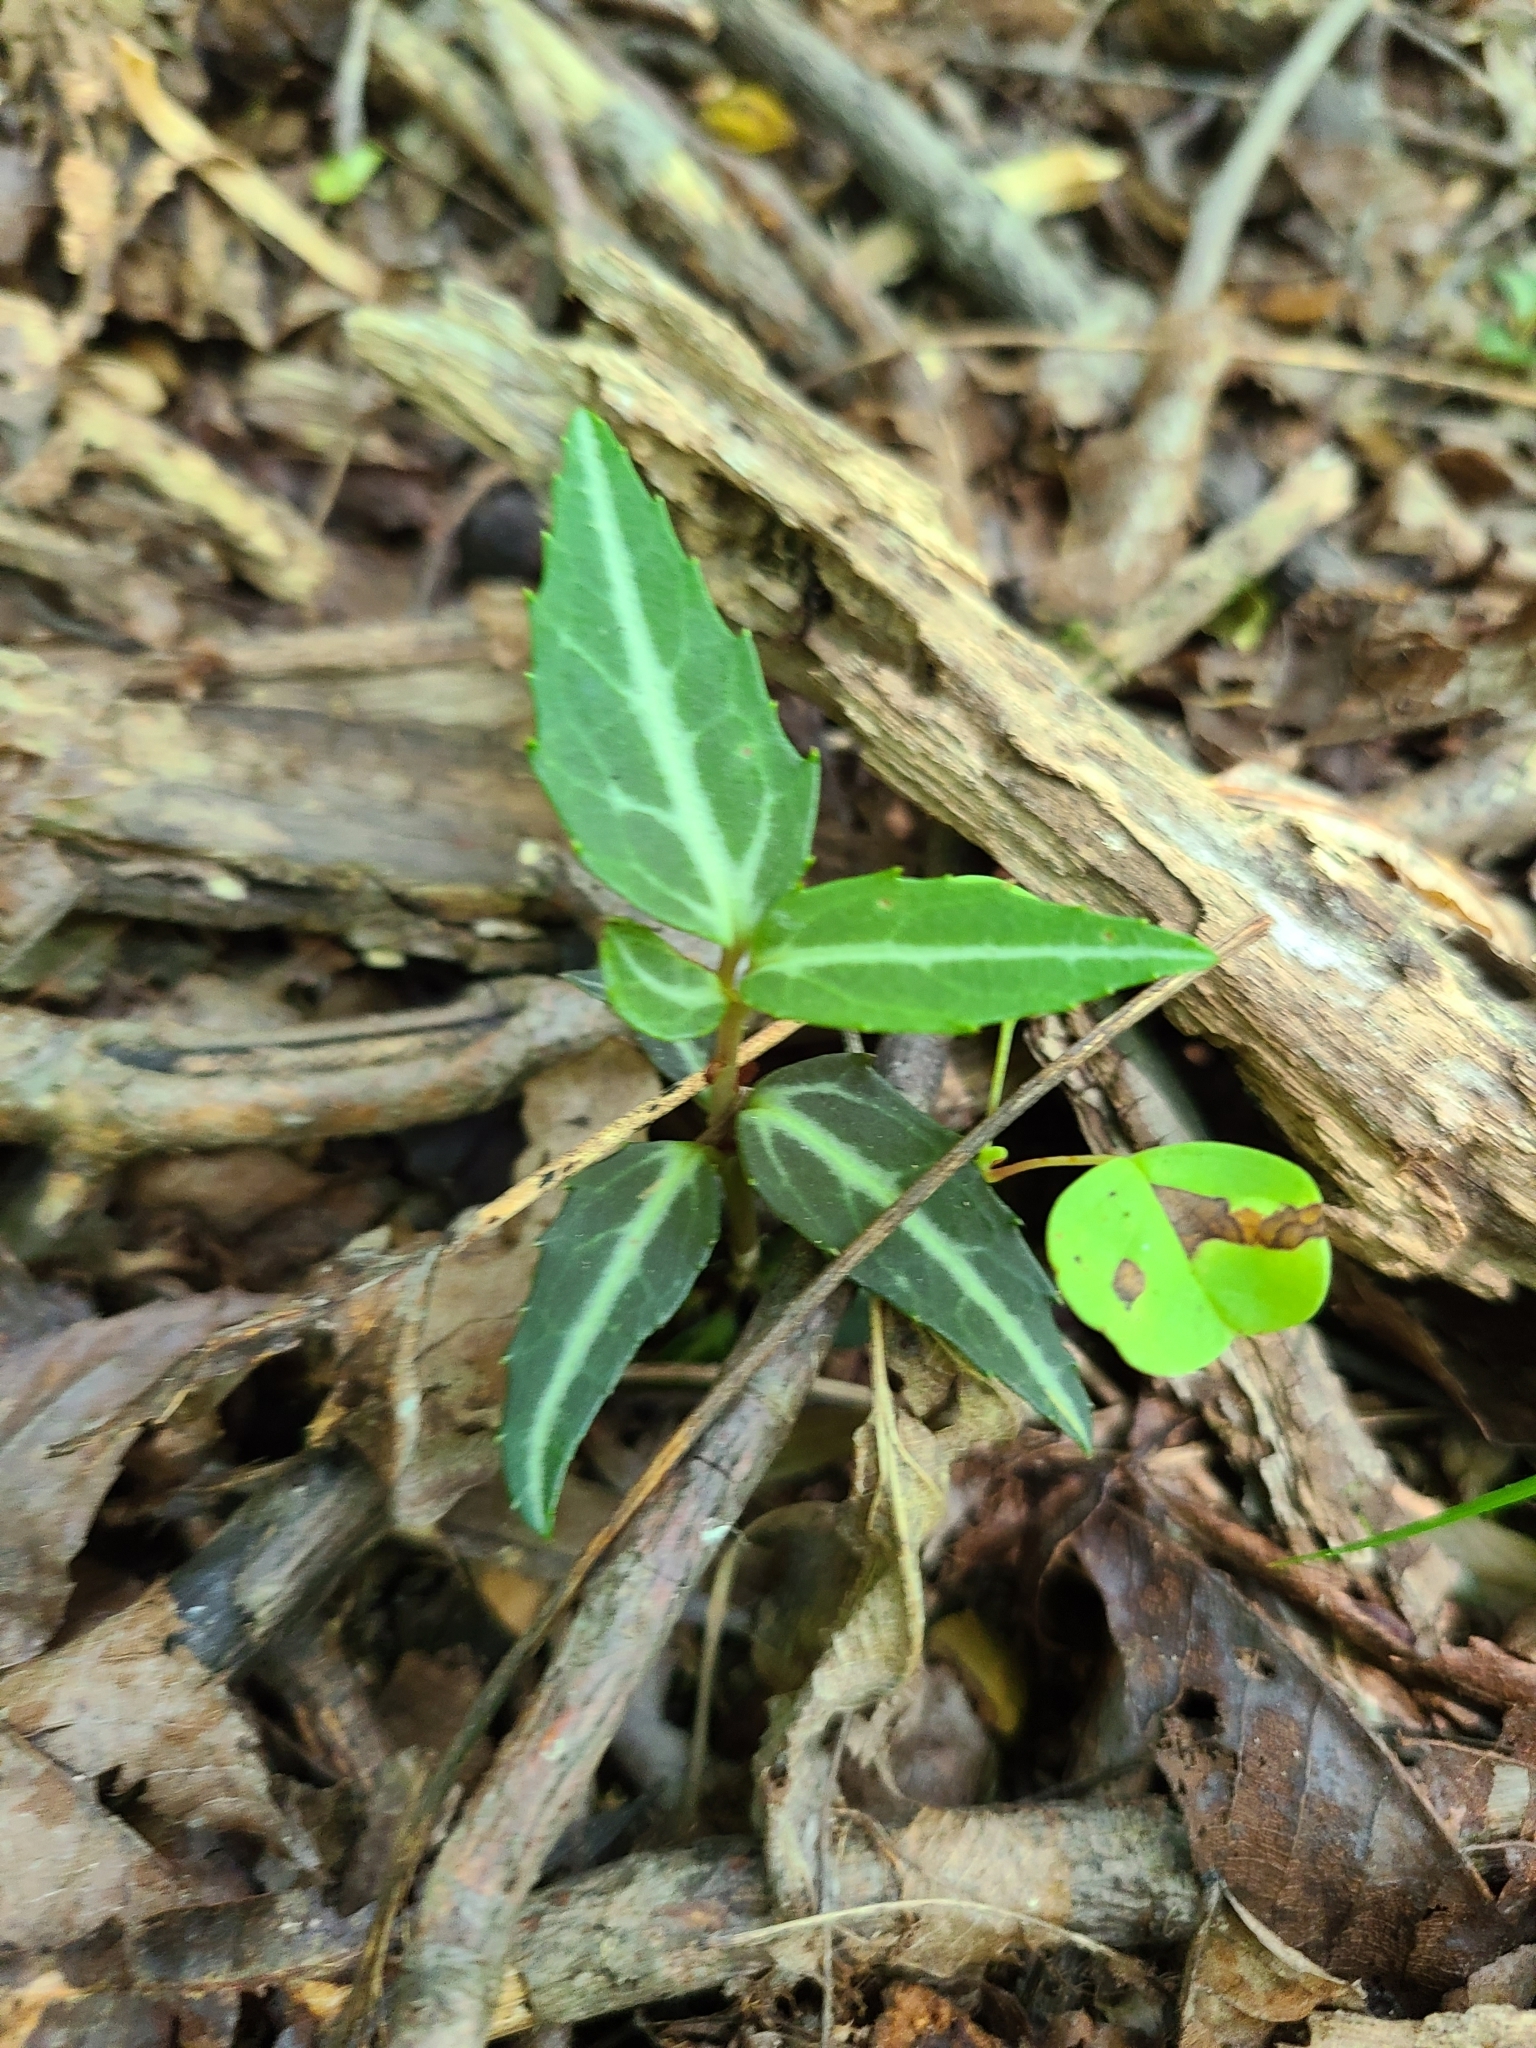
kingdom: Plantae
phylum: Tracheophyta
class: Magnoliopsida
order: Ericales
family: Ericaceae
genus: Chimaphila
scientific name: Chimaphila maculata
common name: Spotted pipsissewa
